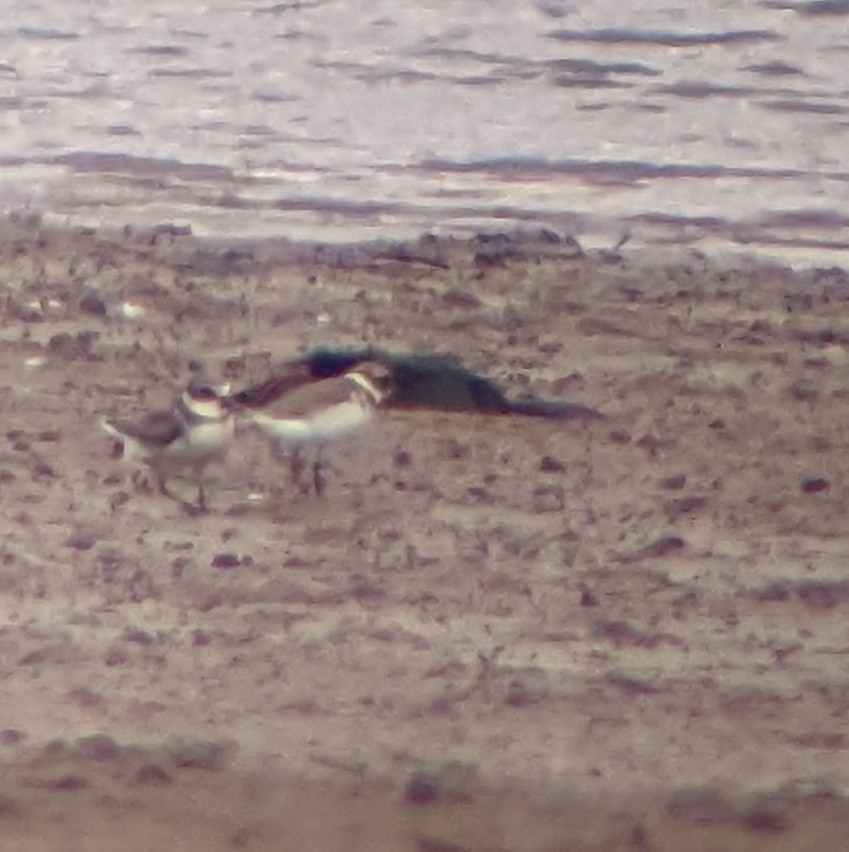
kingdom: Animalia
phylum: Chordata
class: Aves
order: Charadriiformes
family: Charadriidae
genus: Charadrius
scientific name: Charadrius semipalmatus
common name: Semipalmated plover
